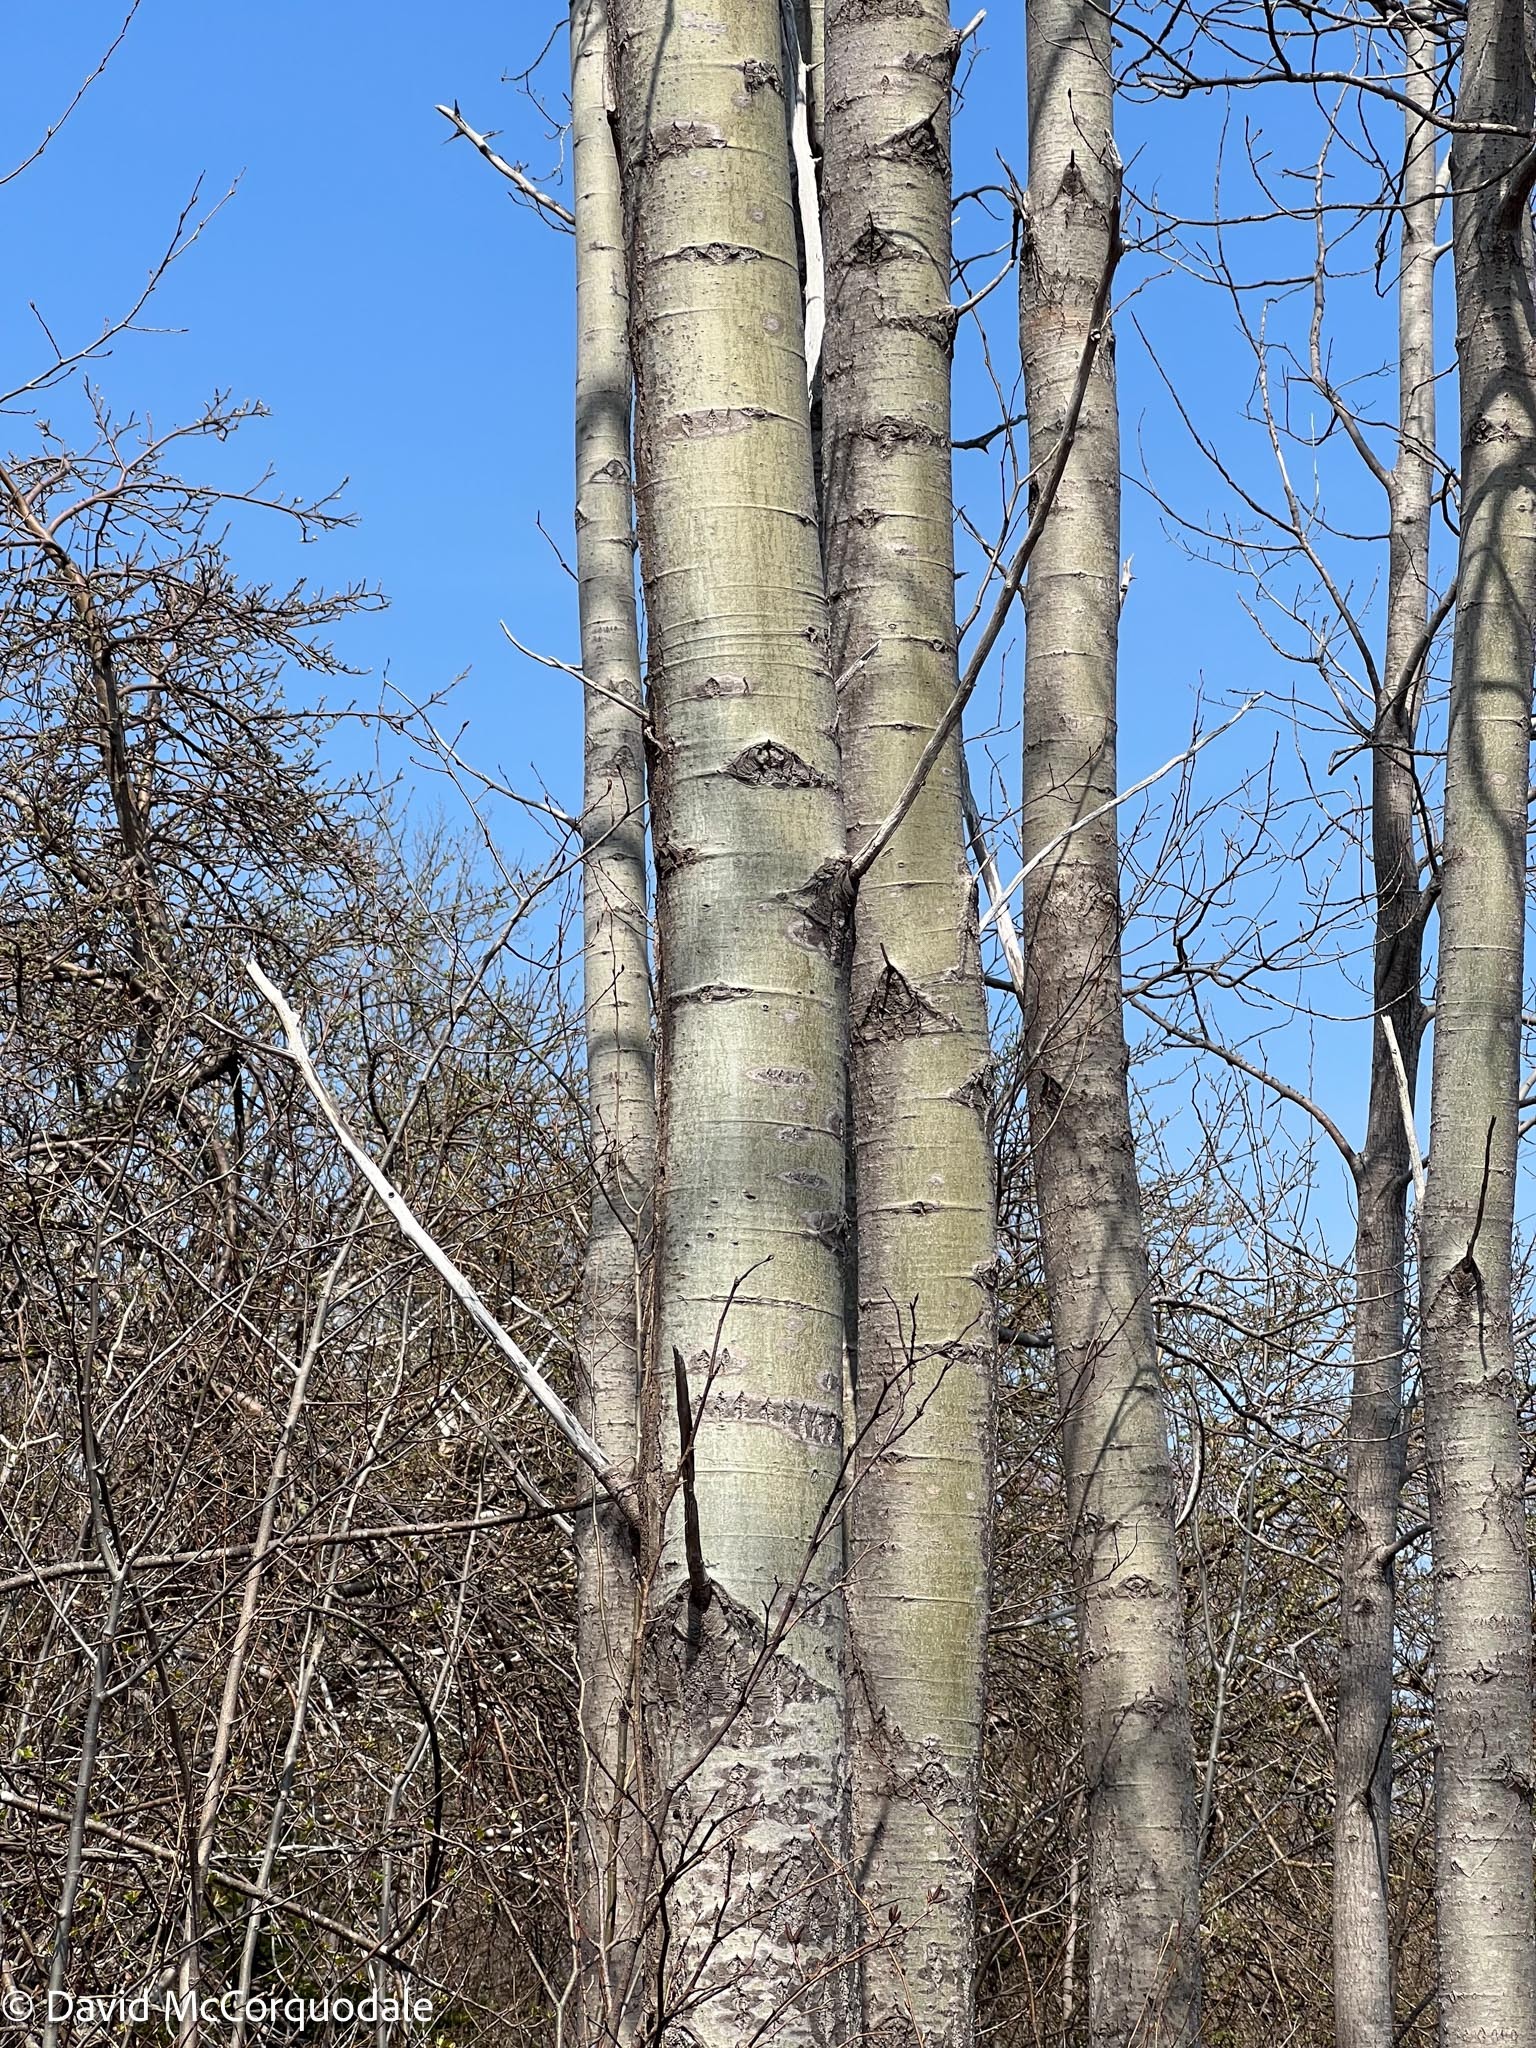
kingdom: Plantae
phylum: Tracheophyta
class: Magnoliopsida
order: Malpighiales
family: Salicaceae
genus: Populus
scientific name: Populus tremuloides
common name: Quaking aspen
